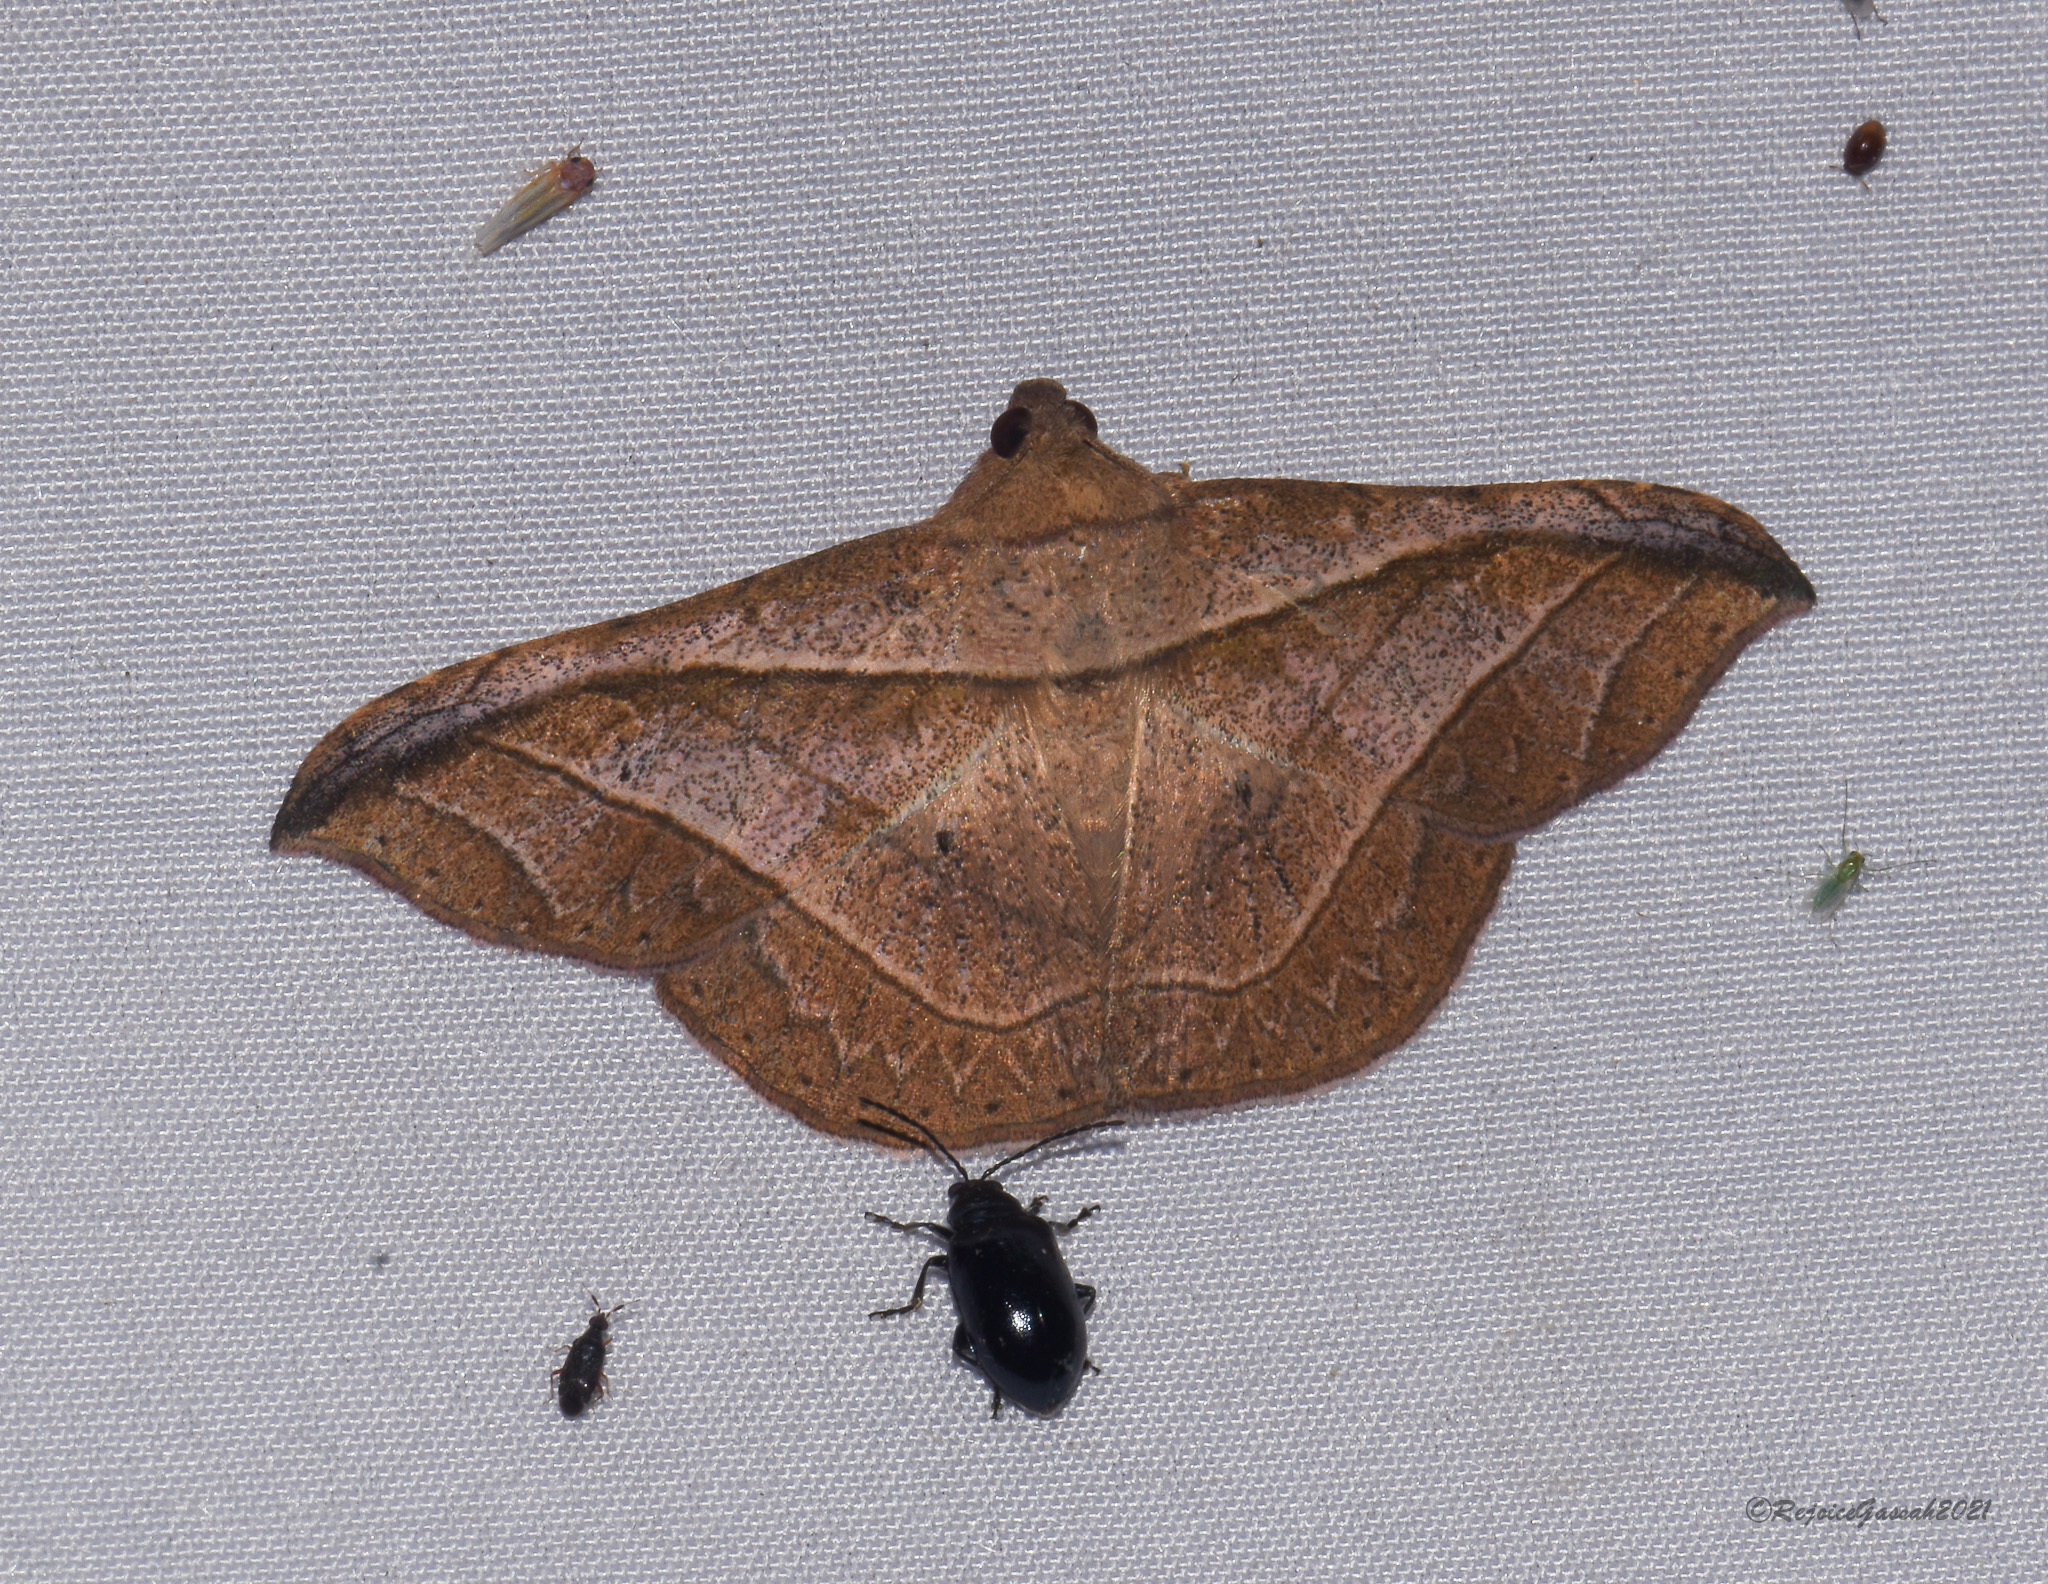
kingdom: Animalia
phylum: Arthropoda
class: Insecta
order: Lepidoptera
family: Erebidae
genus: Tiruvaca
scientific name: Tiruvaca subcostalis
